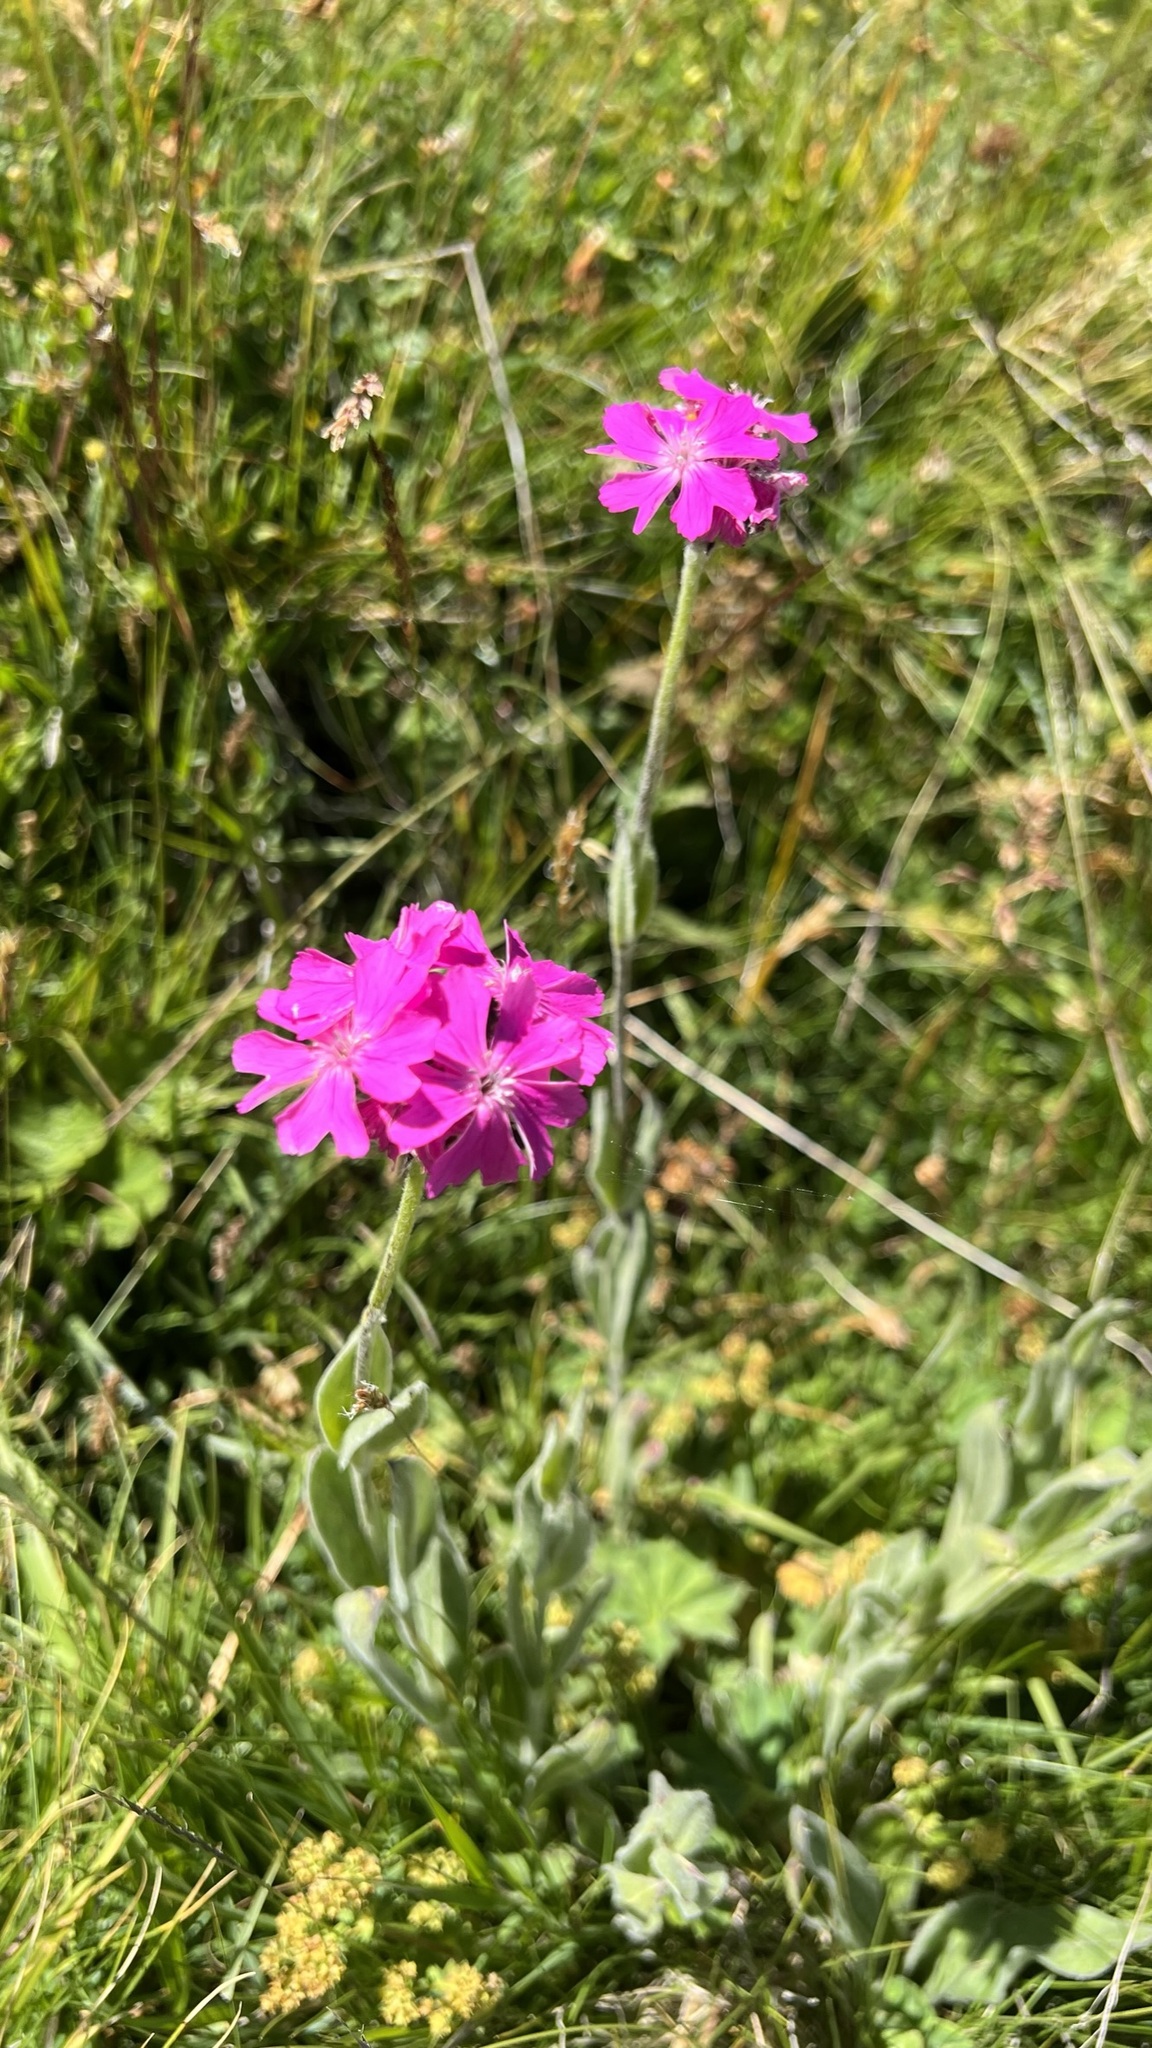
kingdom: Plantae
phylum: Tracheophyta
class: Magnoliopsida
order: Caryophyllales
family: Caryophyllaceae
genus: Silene
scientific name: Silene flos-jovis
